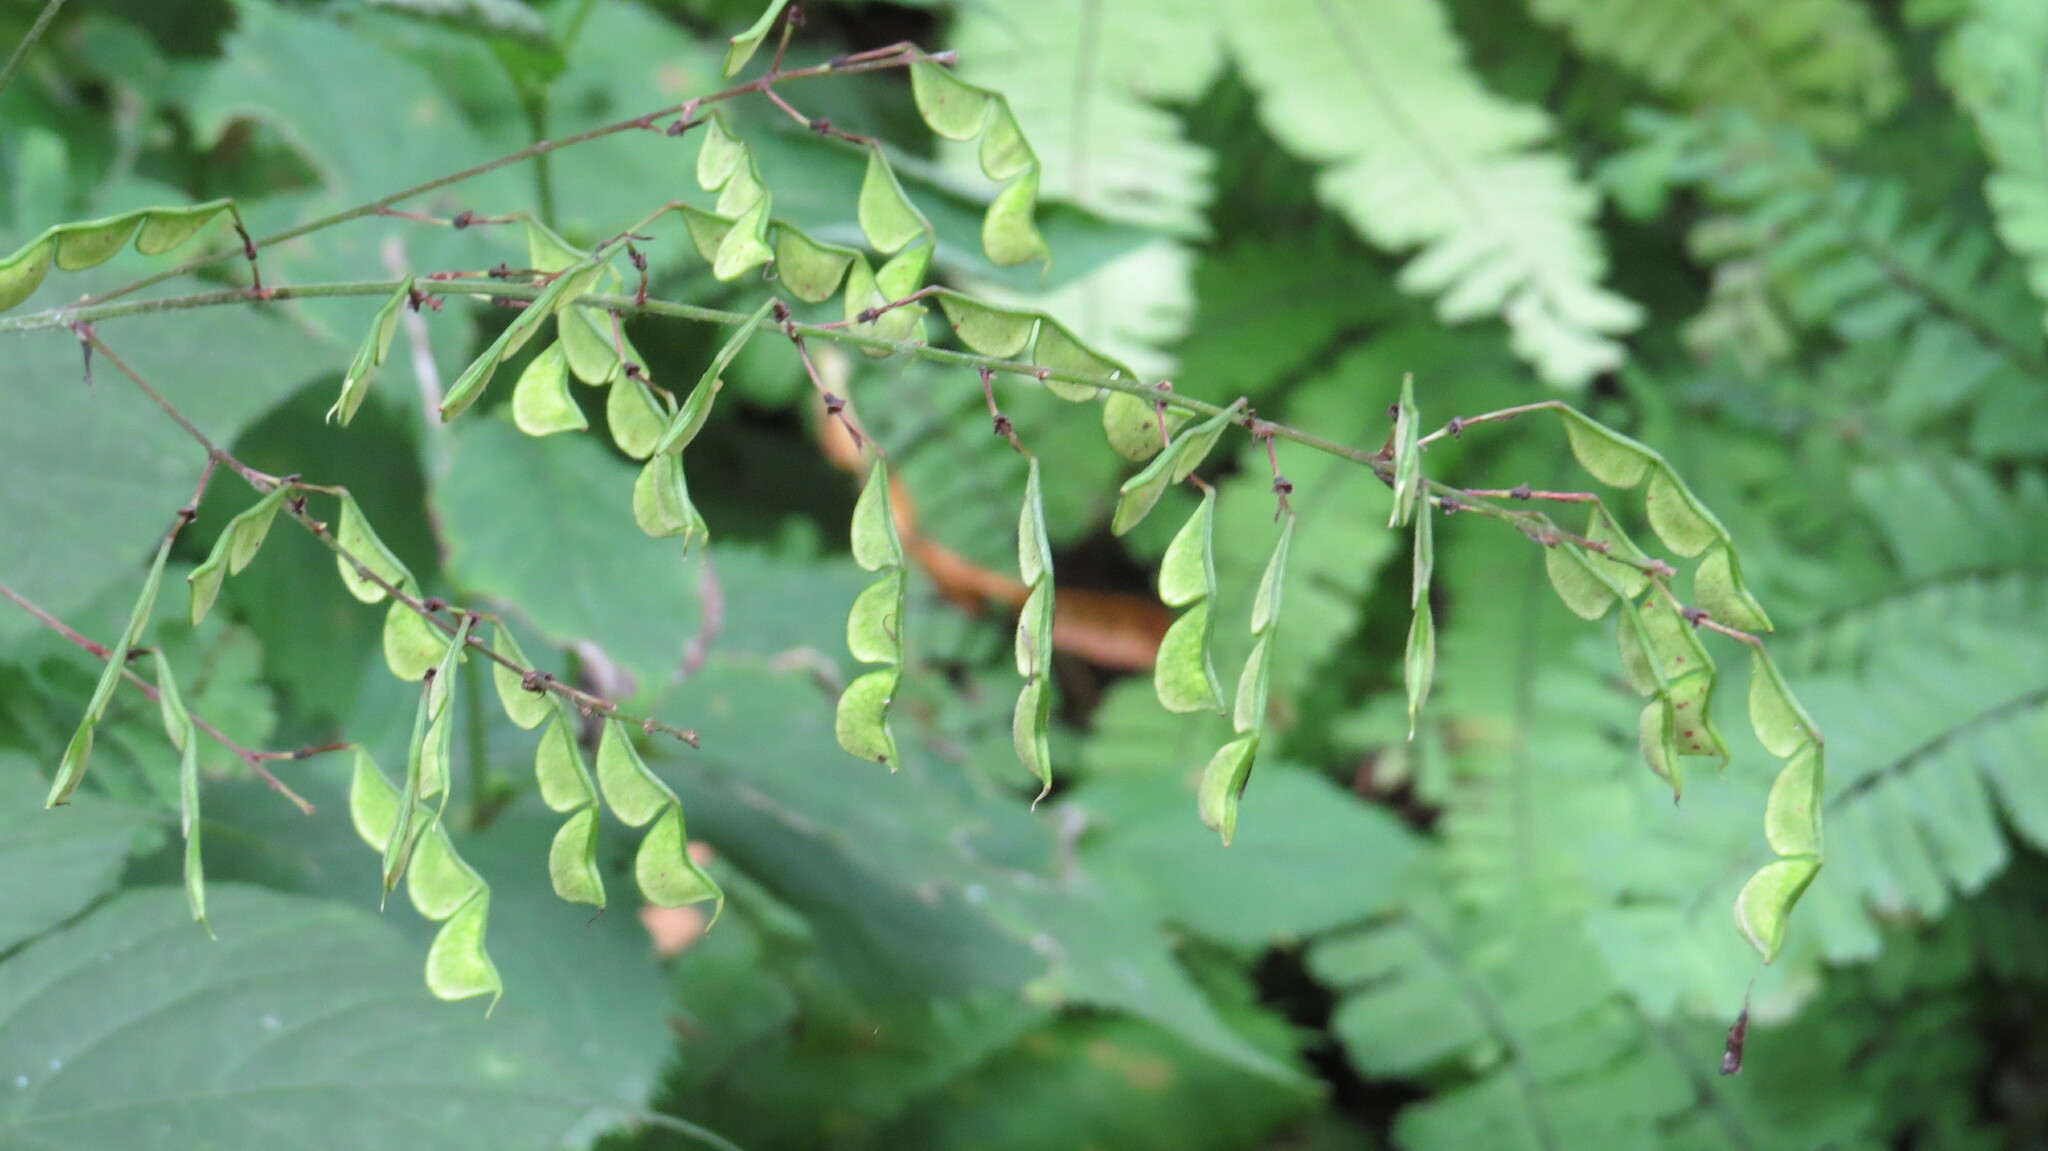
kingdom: Plantae
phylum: Tracheophyta
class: Magnoliopsida
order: Fabales
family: Fabaceae
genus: Hylodesmum
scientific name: Hylodesmum glutinosum
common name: Clustered-leaved tick-trefoil
